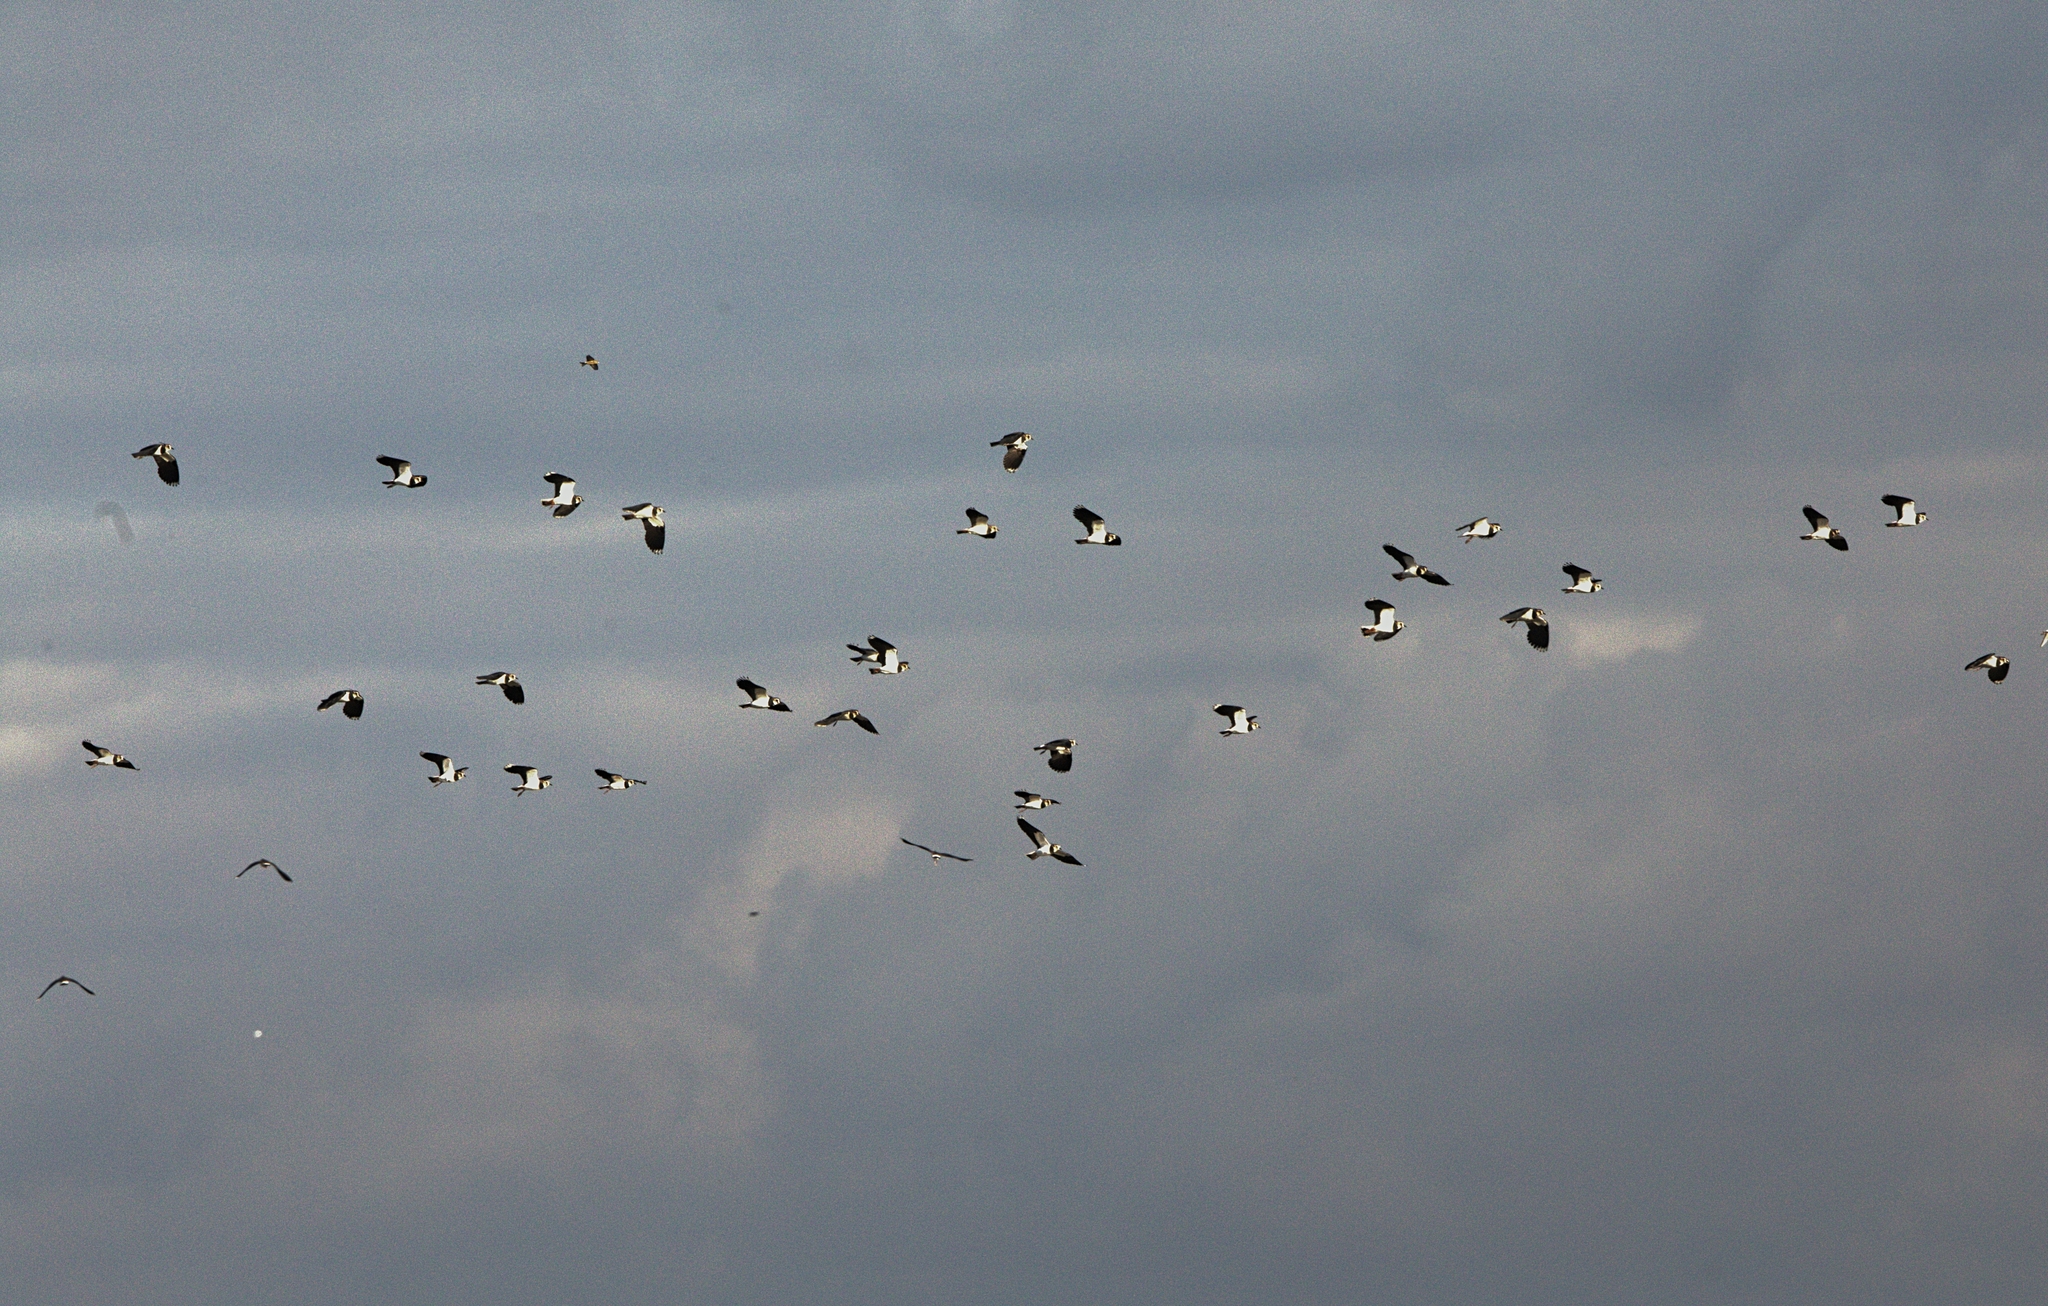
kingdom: Animalia
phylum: Chordata
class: Aves
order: Charadriiformes
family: Charadriidae
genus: Vanellus
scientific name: Vanellus vanellus
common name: Northern lapwing
